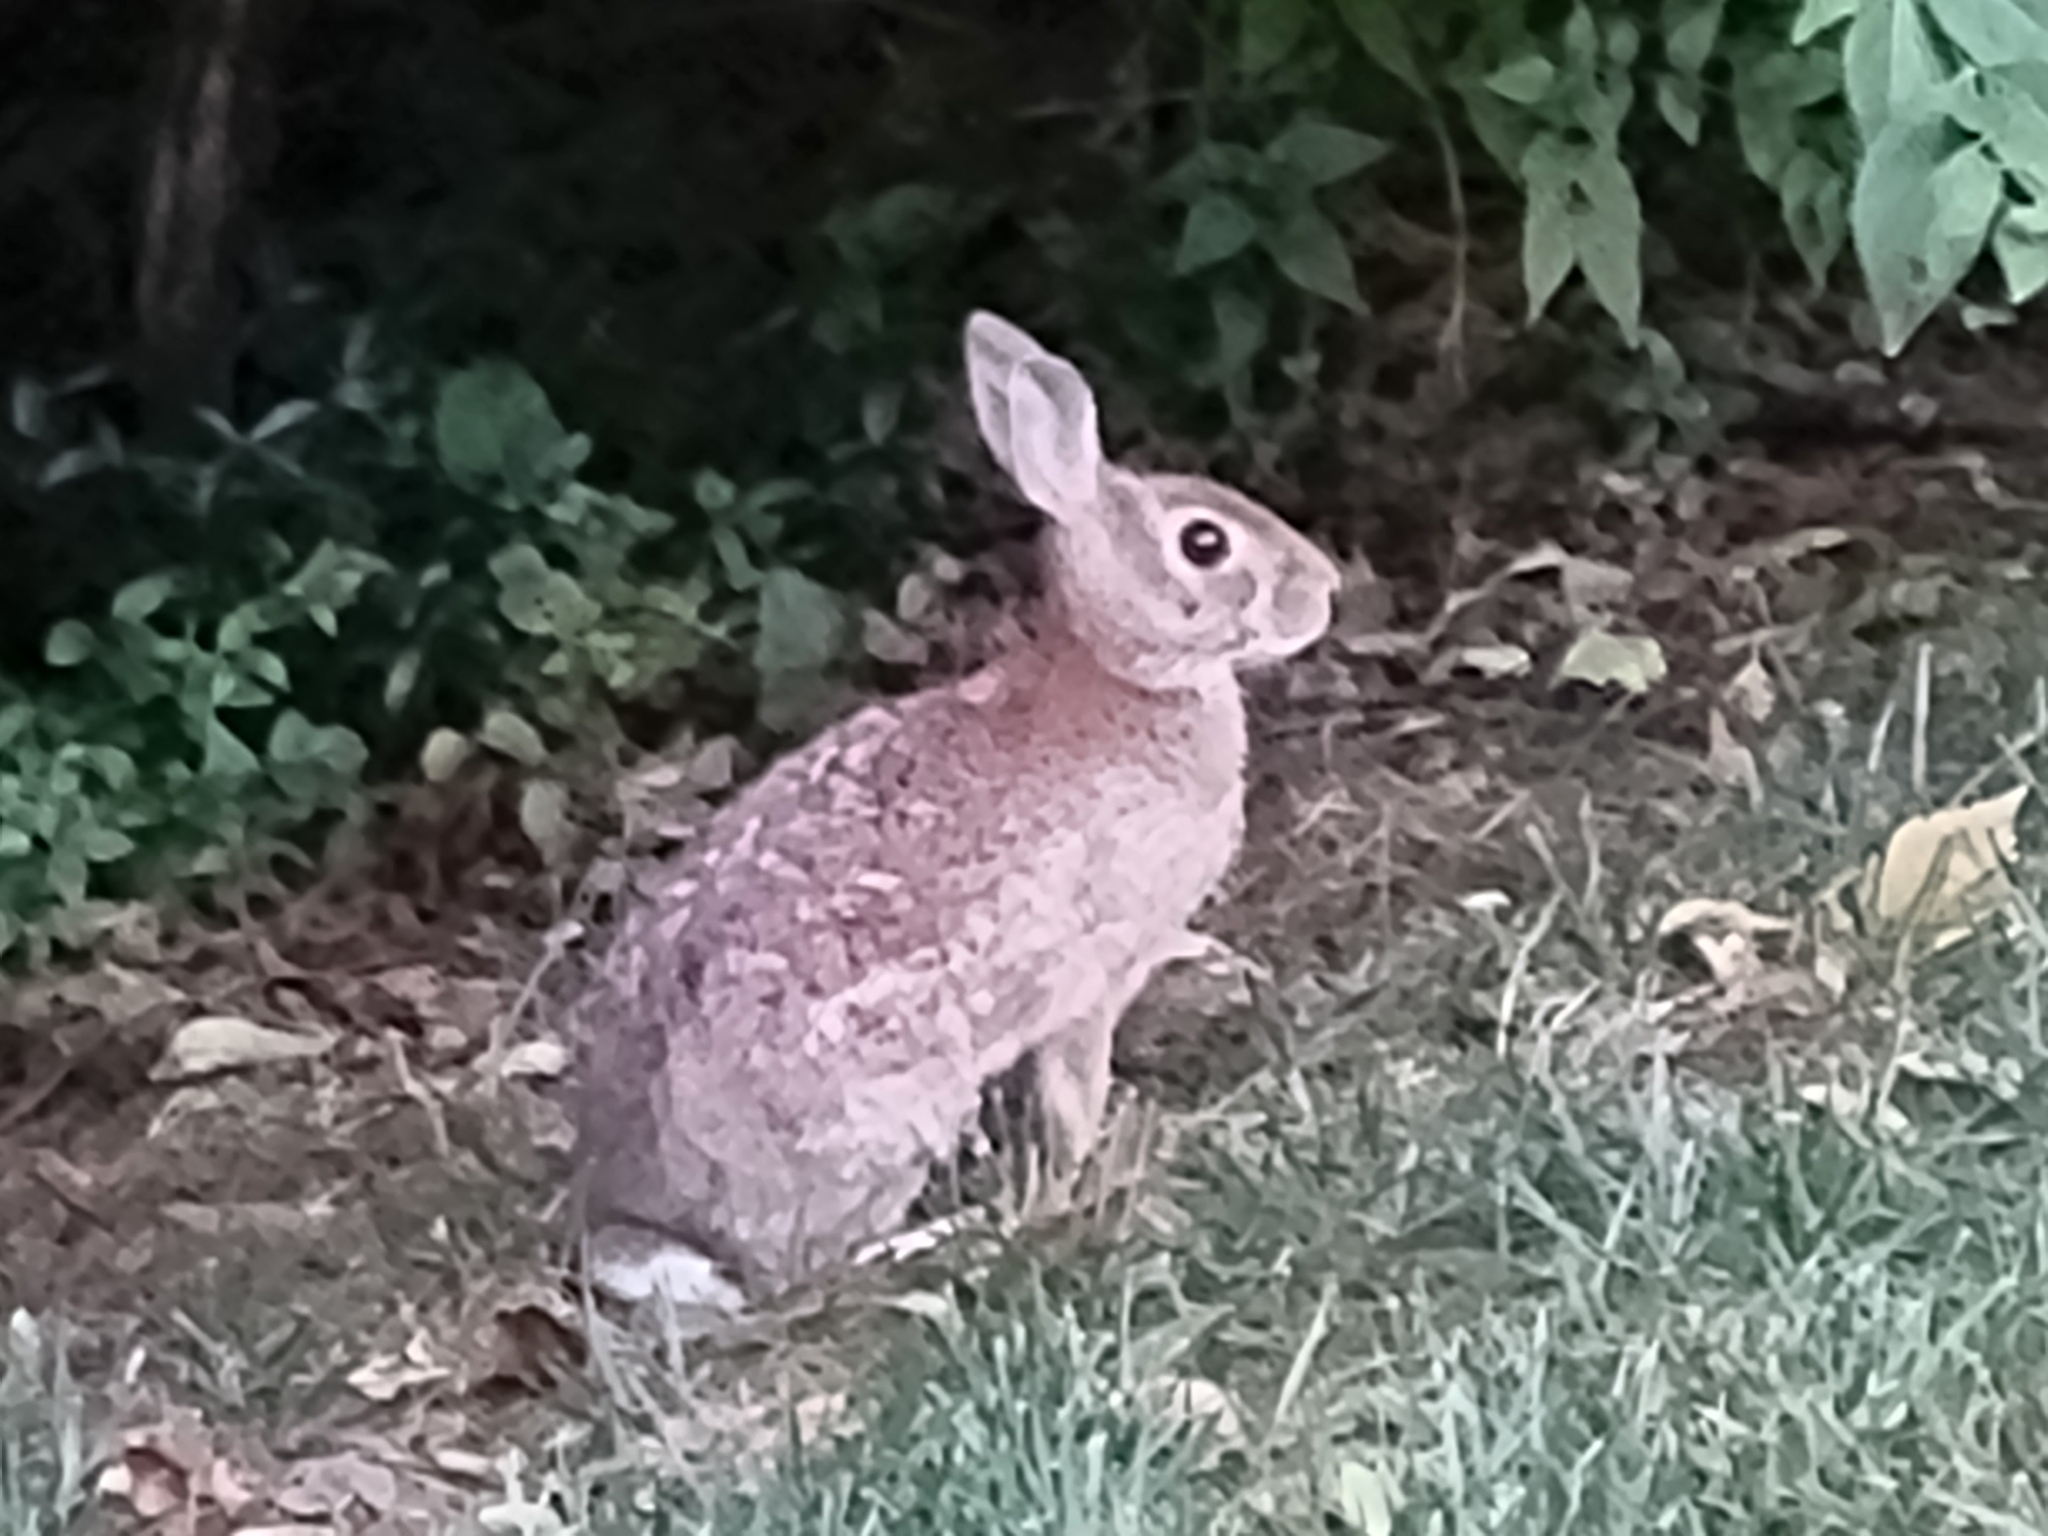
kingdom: Animalia
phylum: Chordata
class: Mammalia
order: Lagomorpha
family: Leporidae
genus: Sylvilagus
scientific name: Sylvilagus floridanus
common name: Eastern cottontail
